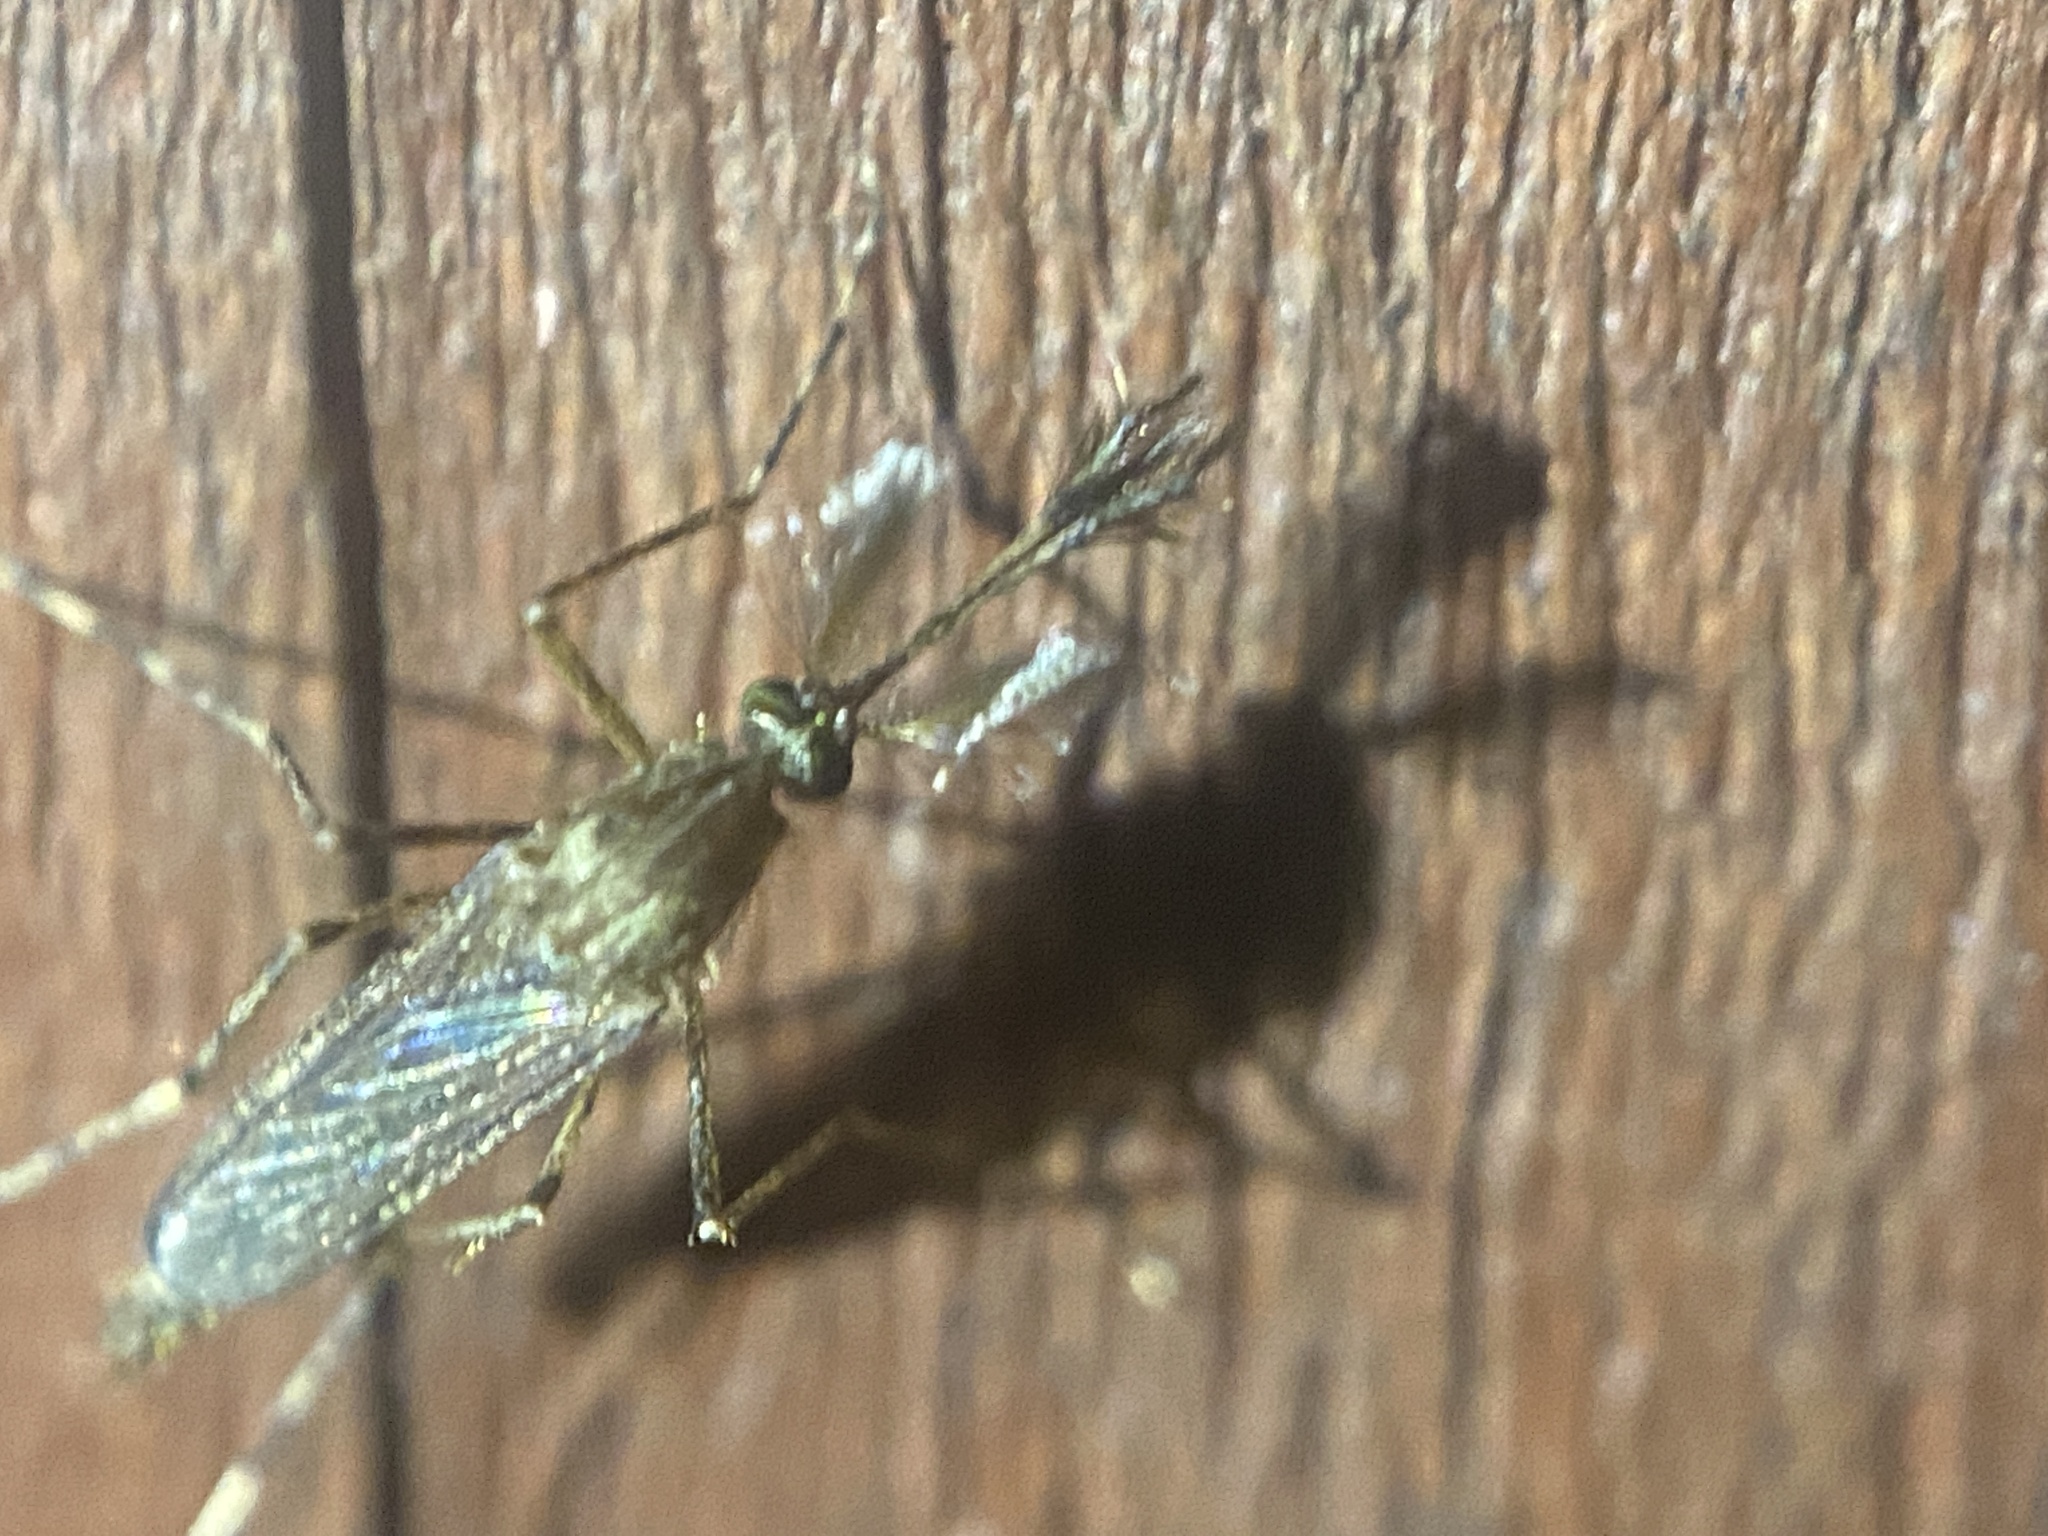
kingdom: Animalia
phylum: Arthropoda
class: Insecta
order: Diptera
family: Culicidae
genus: Coquillettidia
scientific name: Coquillettidia perturbans
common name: Cattail mosquito
